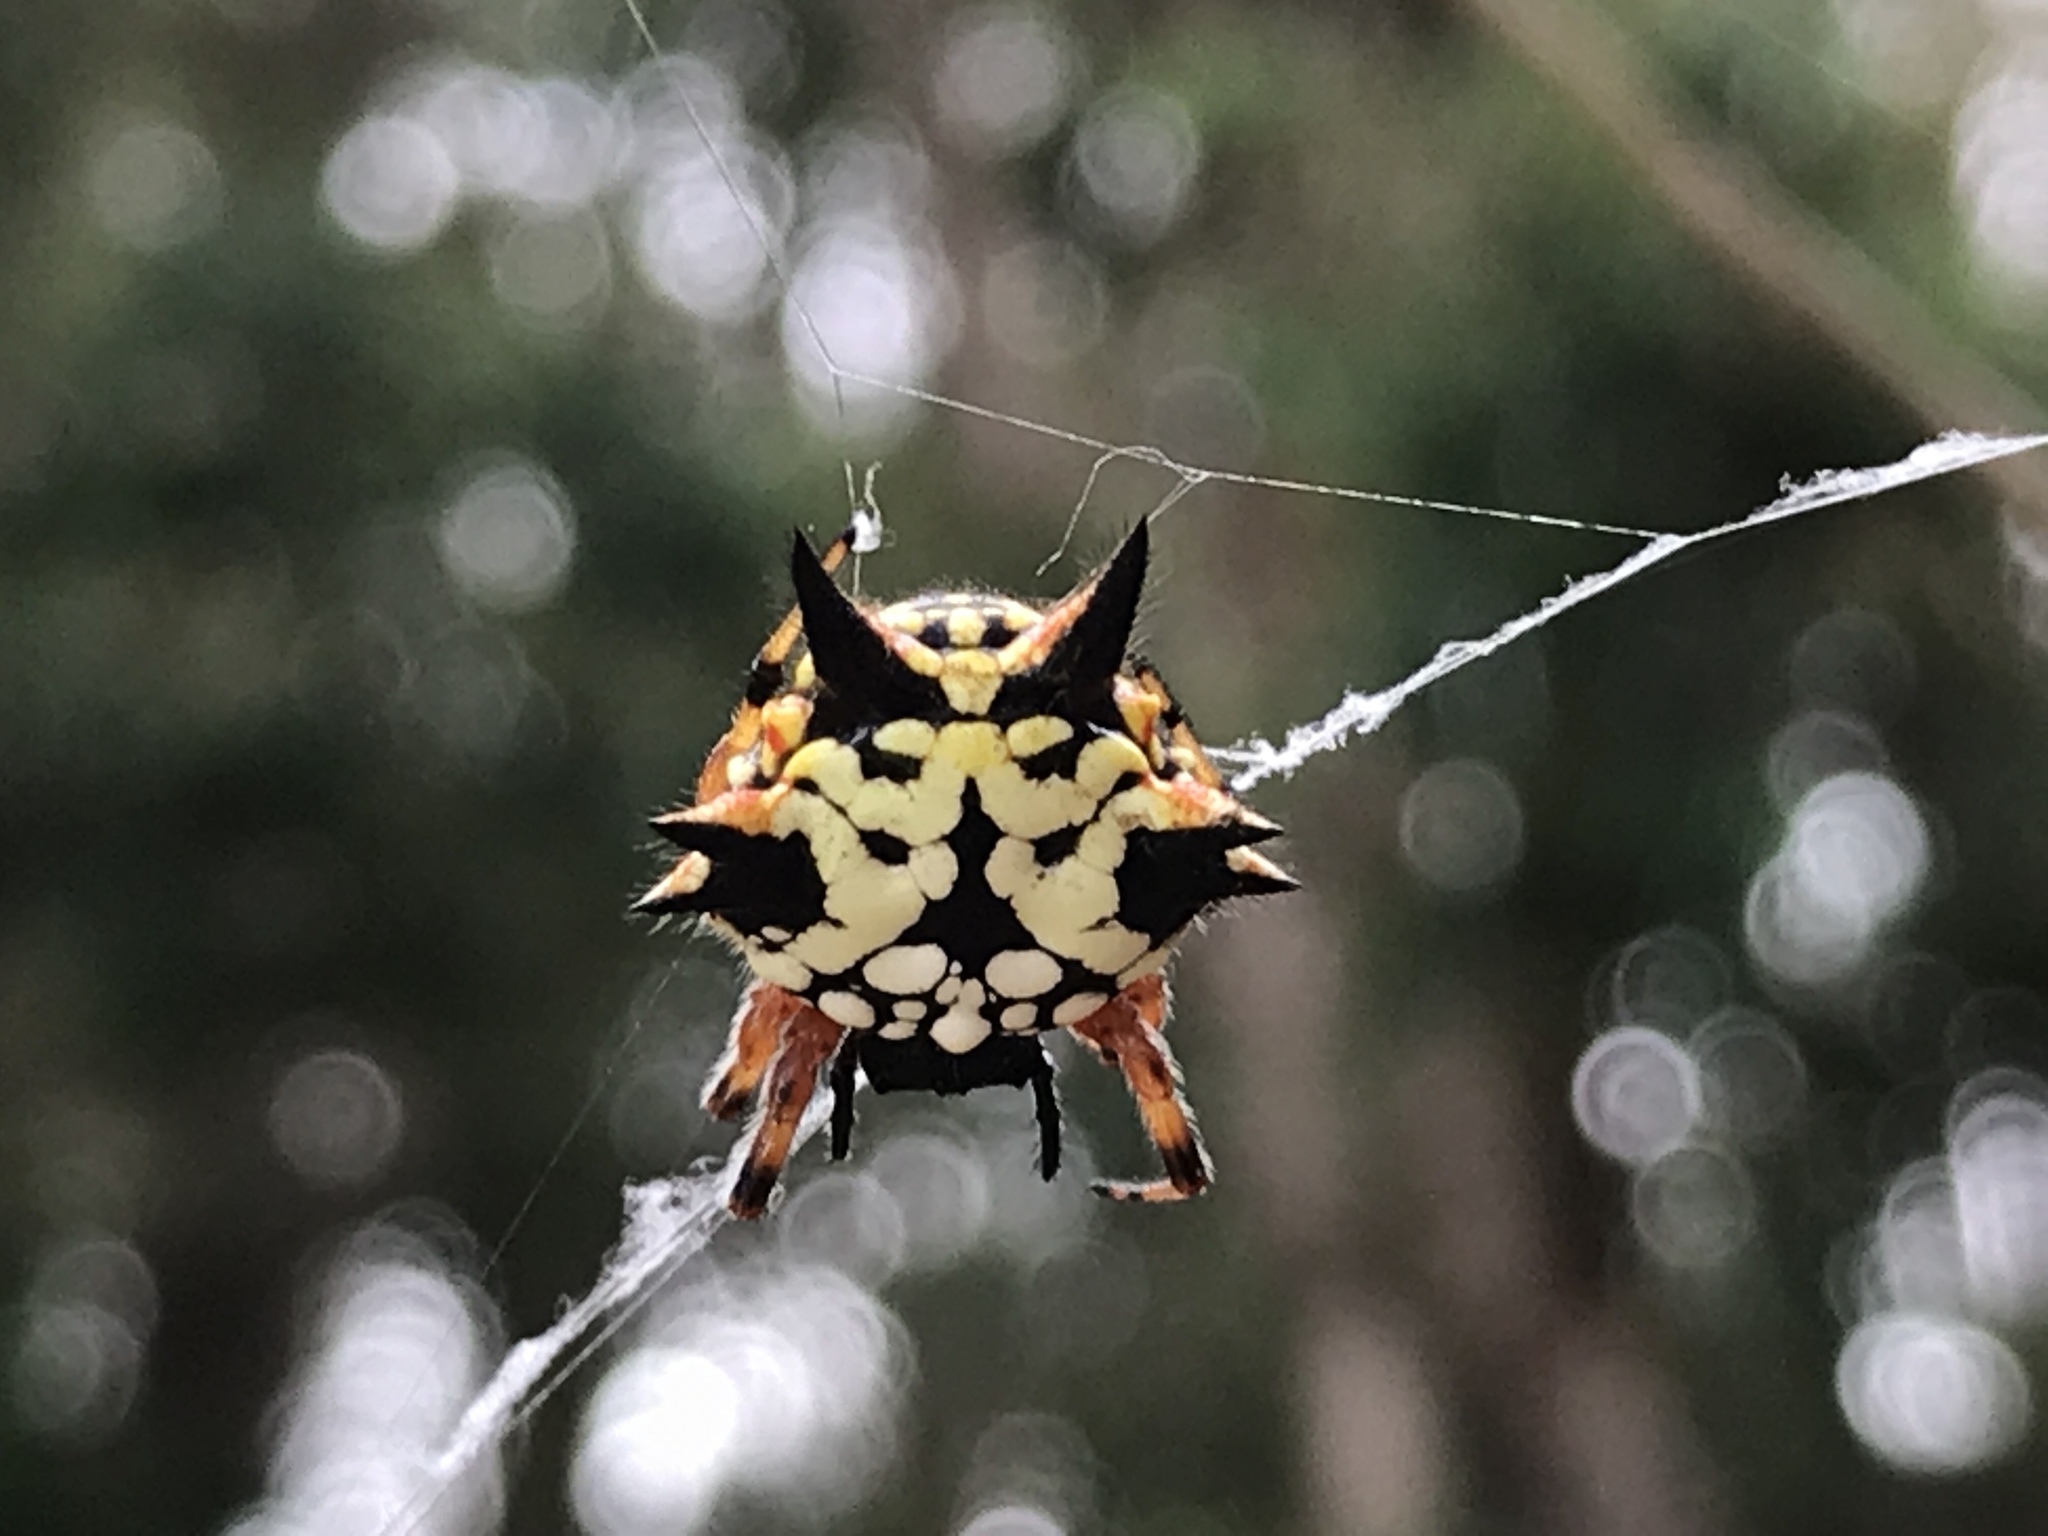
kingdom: Animalia
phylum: Arthropoda
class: Arachnida
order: Araneae
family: Araneidae
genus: Austracantha
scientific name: Austracantha minax
